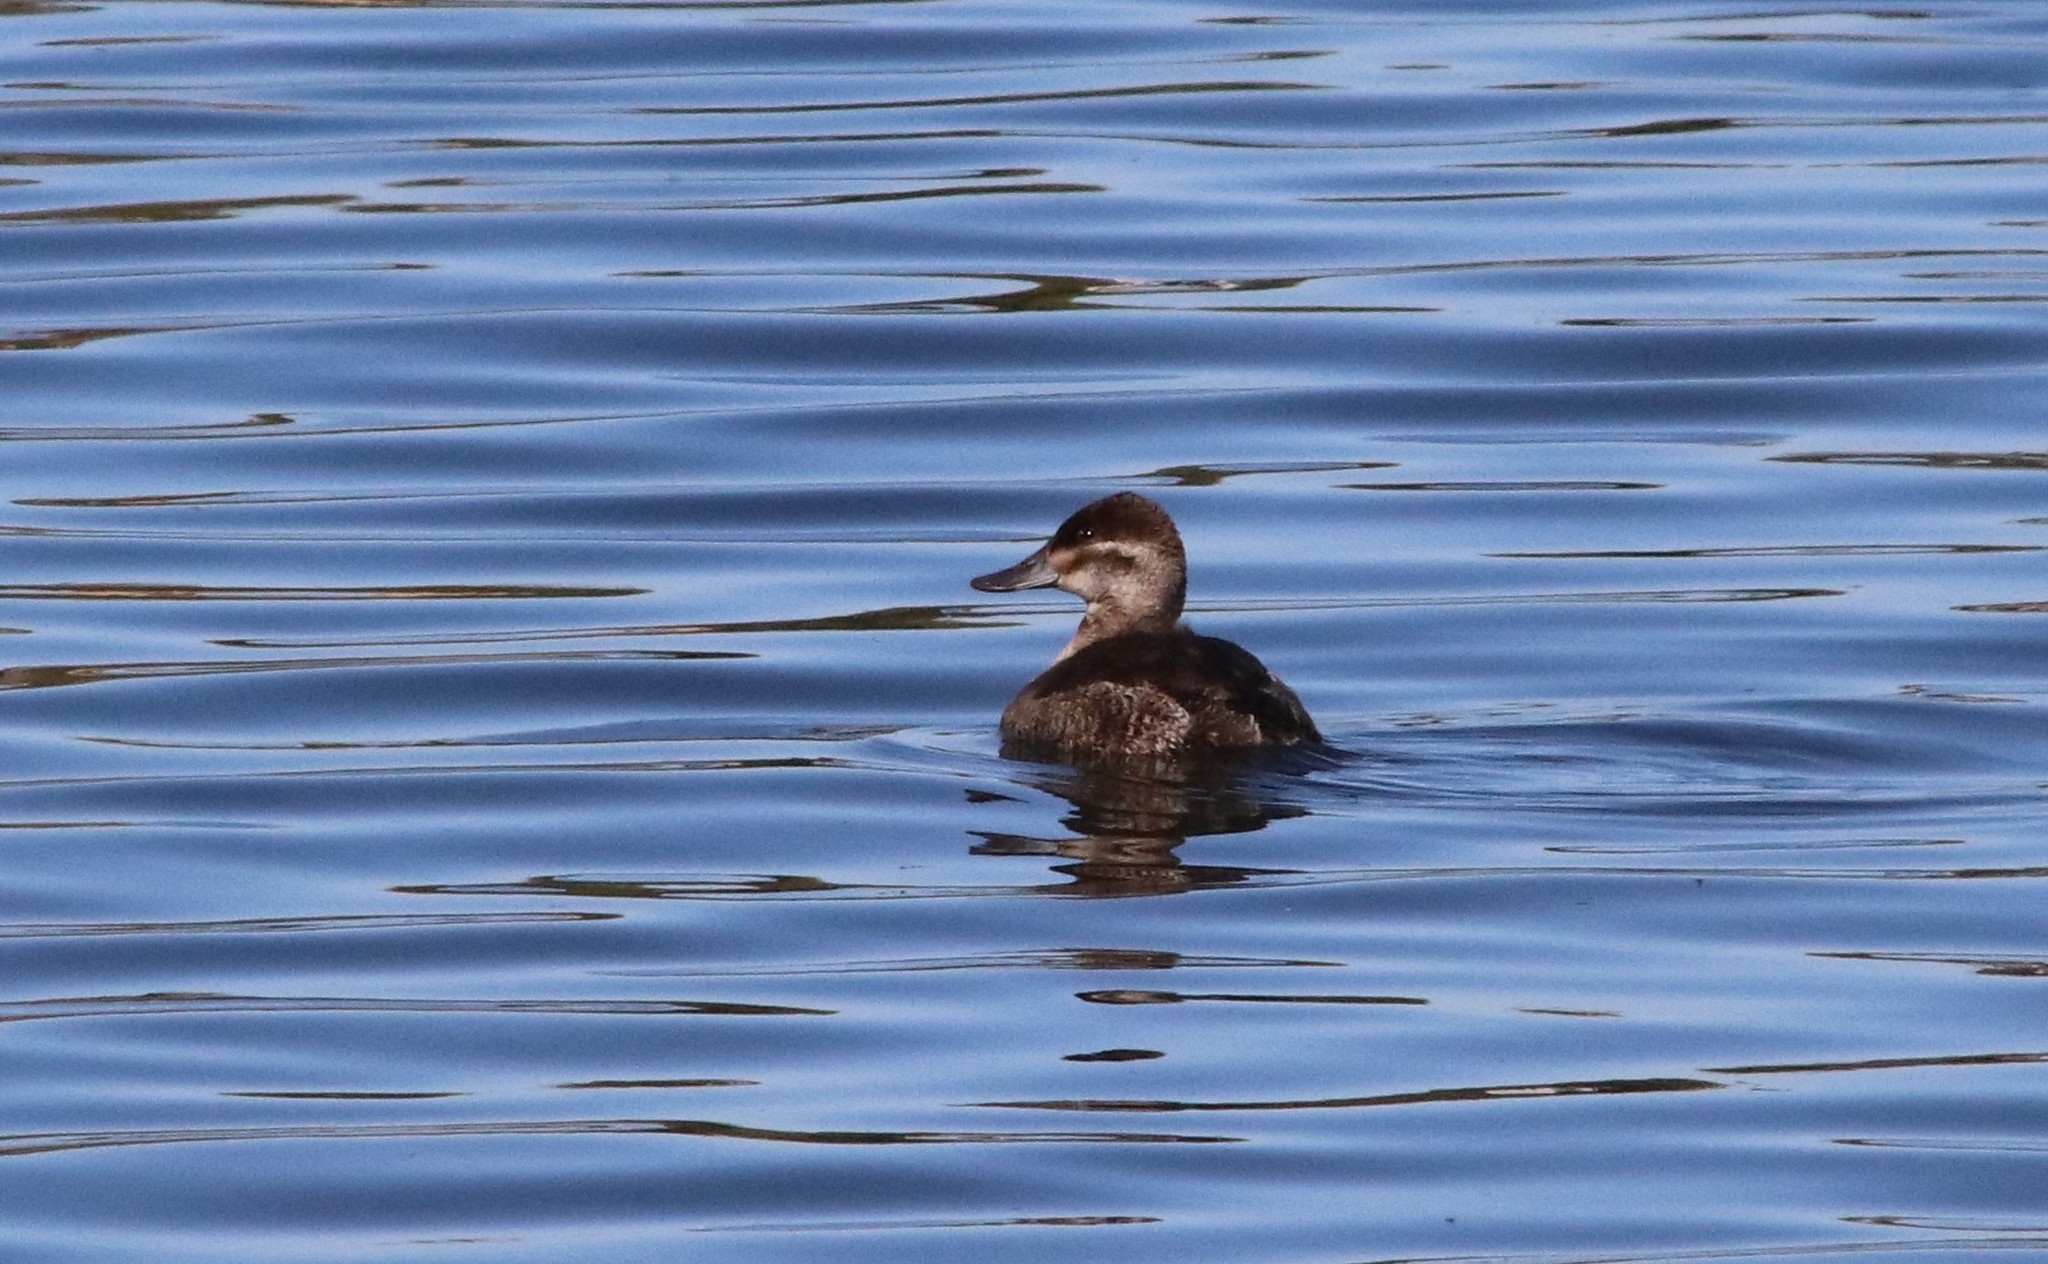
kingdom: Animalia
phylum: Chordata
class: Aves
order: Anseriformes
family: Anatidae
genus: Oxyura
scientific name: Oxyura jamaicensis
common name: Ruddy duck
